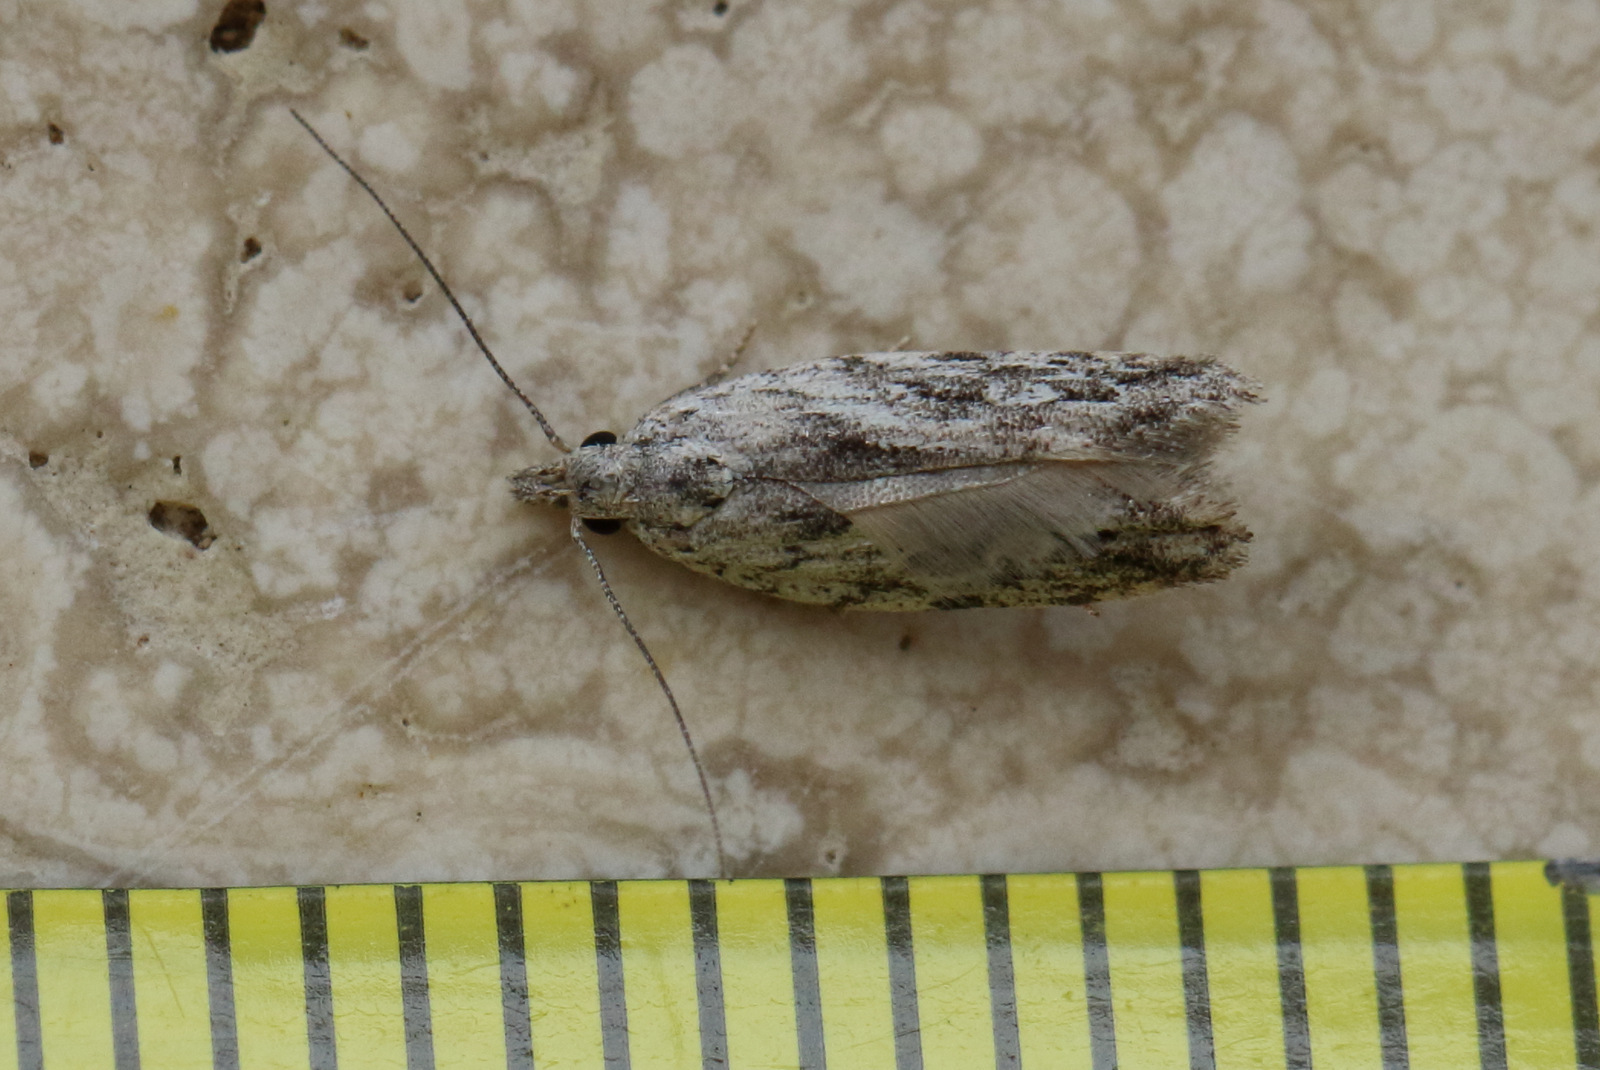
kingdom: Animalia
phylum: Arthropoda
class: Insecta
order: Lepidoptera
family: Gelechiidae
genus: Hypatima
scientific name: Hypatima cyrtopleura
